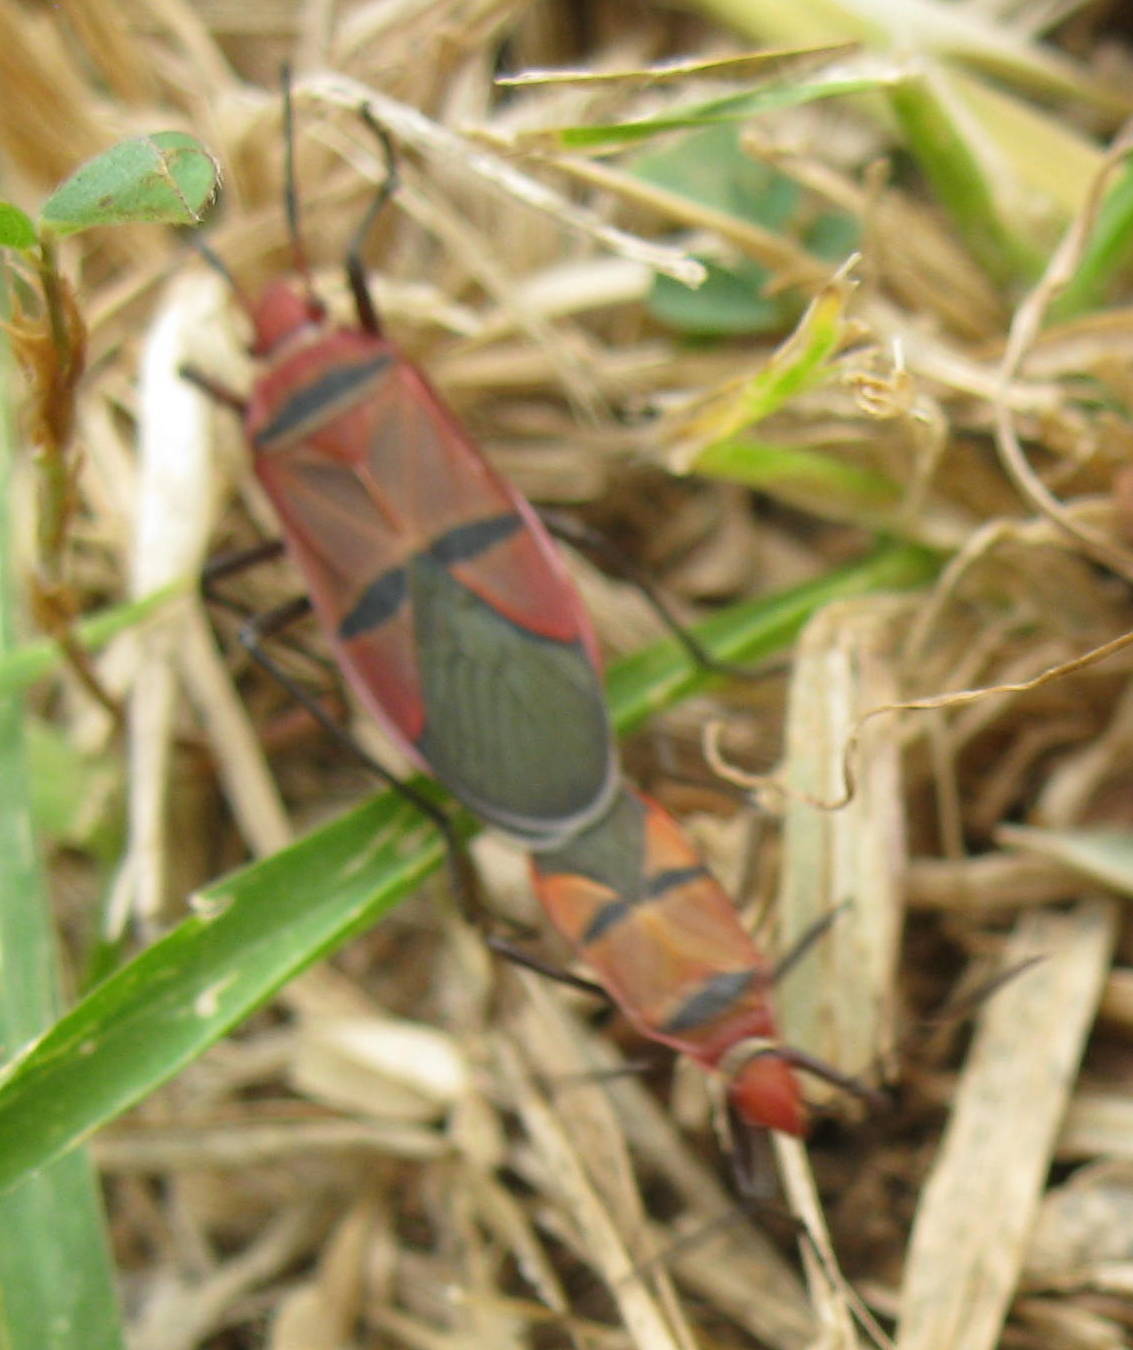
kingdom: Animalia
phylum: Arthropoda
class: Insecta
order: Hemiptera
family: Pyrrhocoridae
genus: Dysdercus
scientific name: Dysdercus fasciatus
